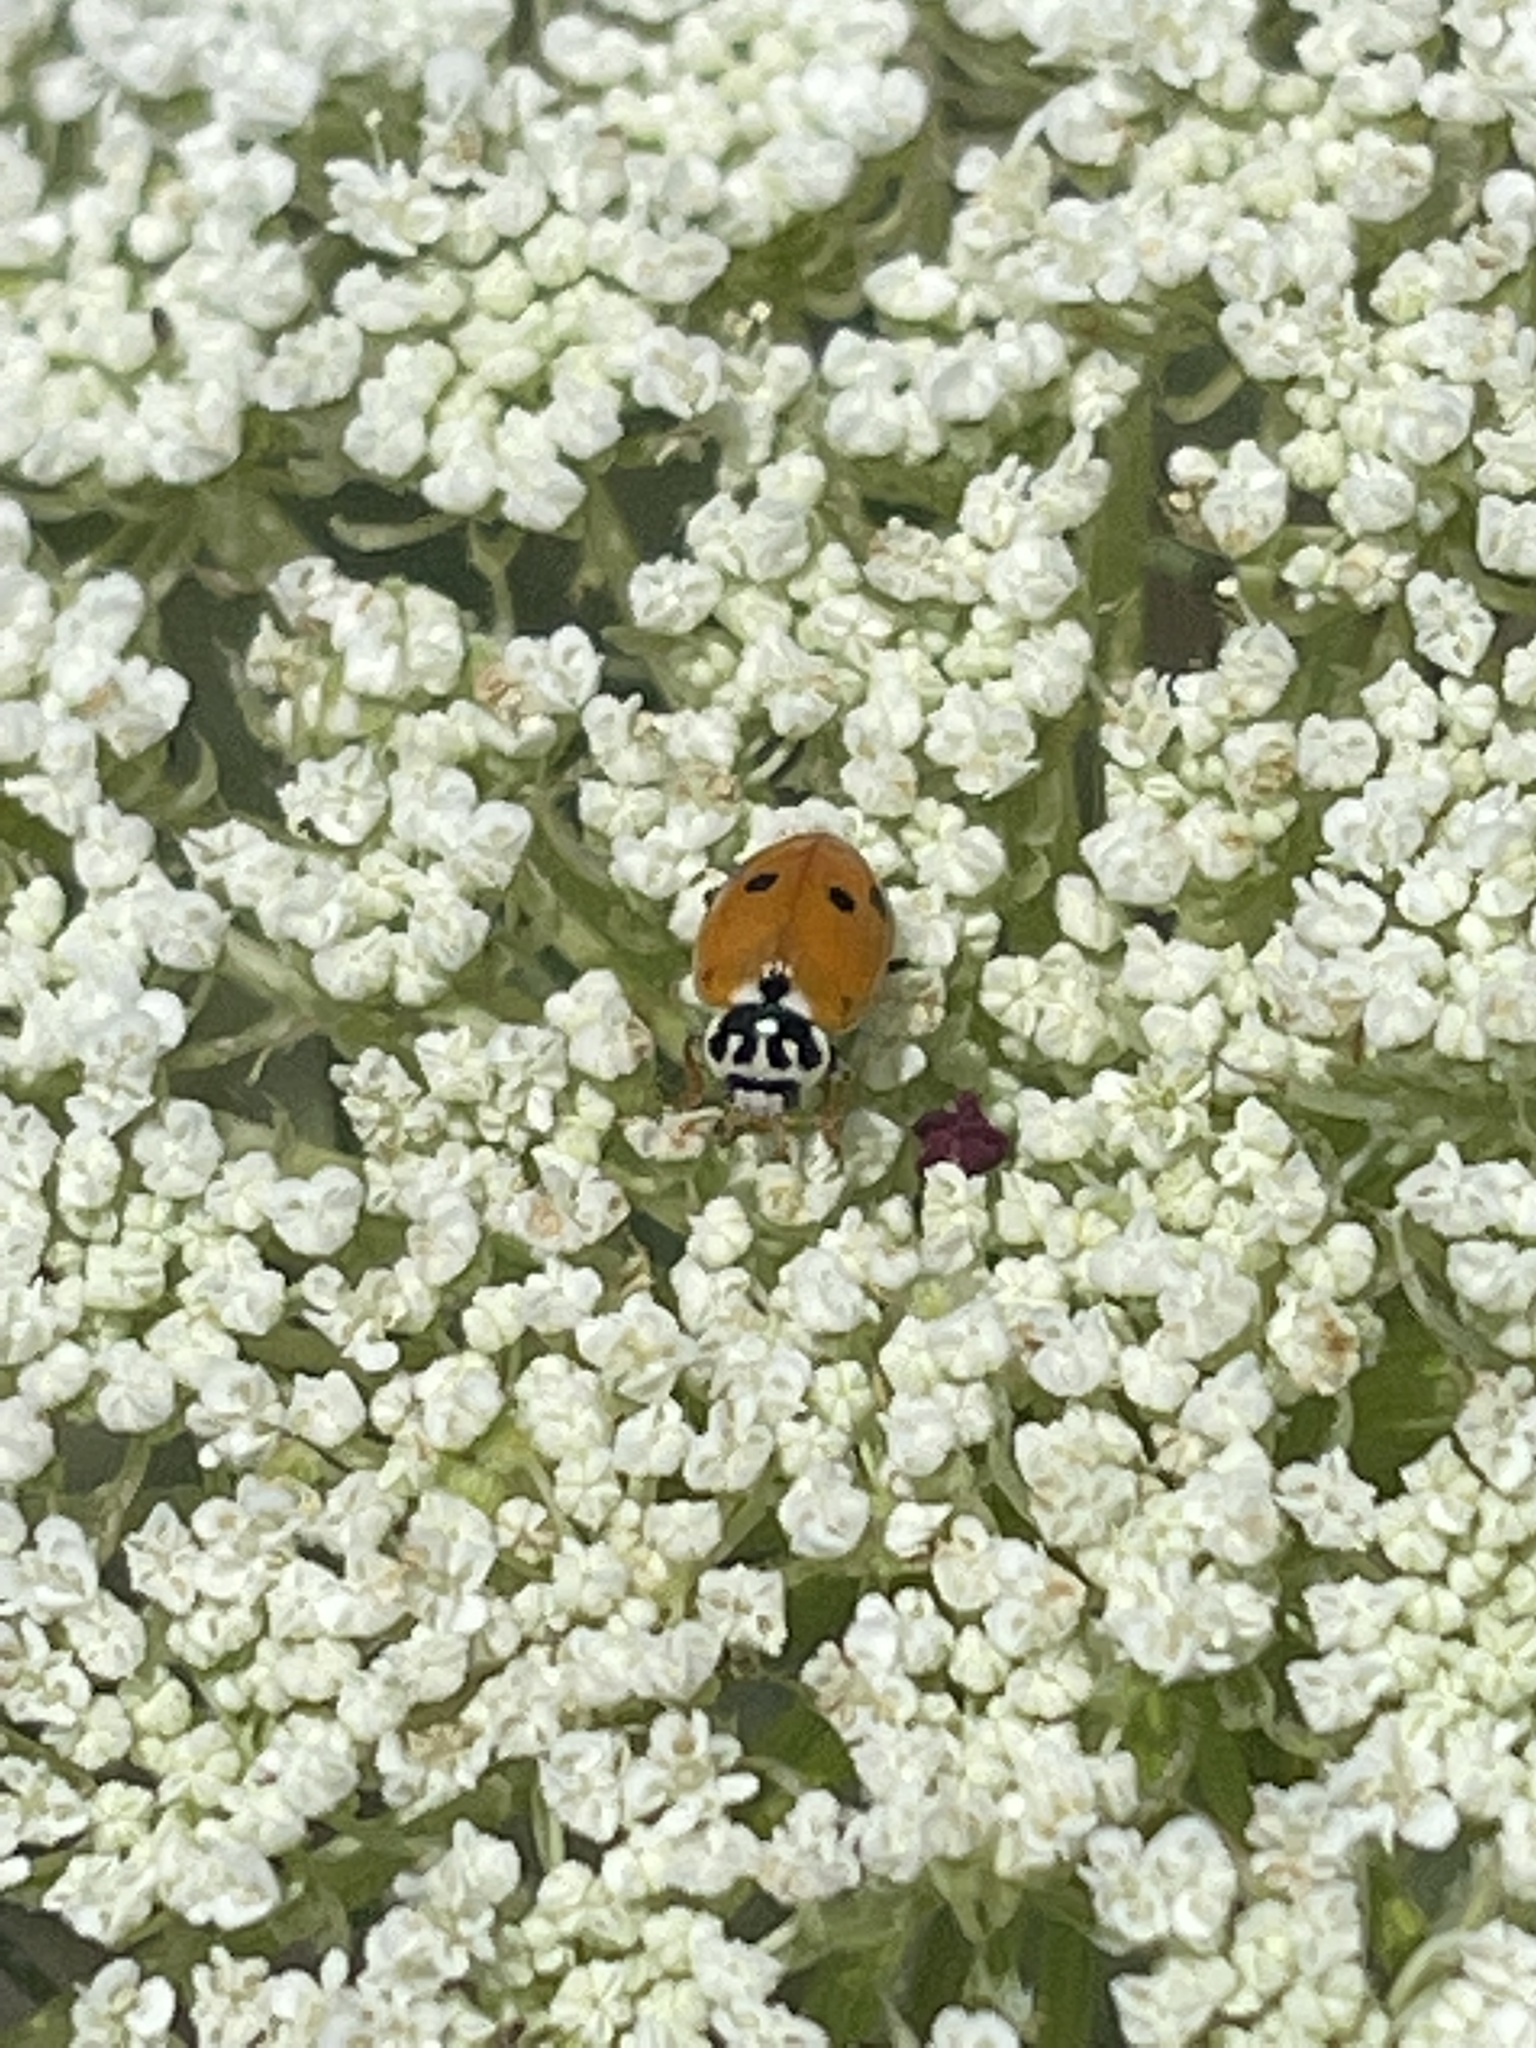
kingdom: Animalia
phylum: Arthropoda
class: Insecta
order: Coleoptera
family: Coccinellidae
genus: Hippodamia
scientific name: Hippodamia variegata
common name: Ladybird beetle
